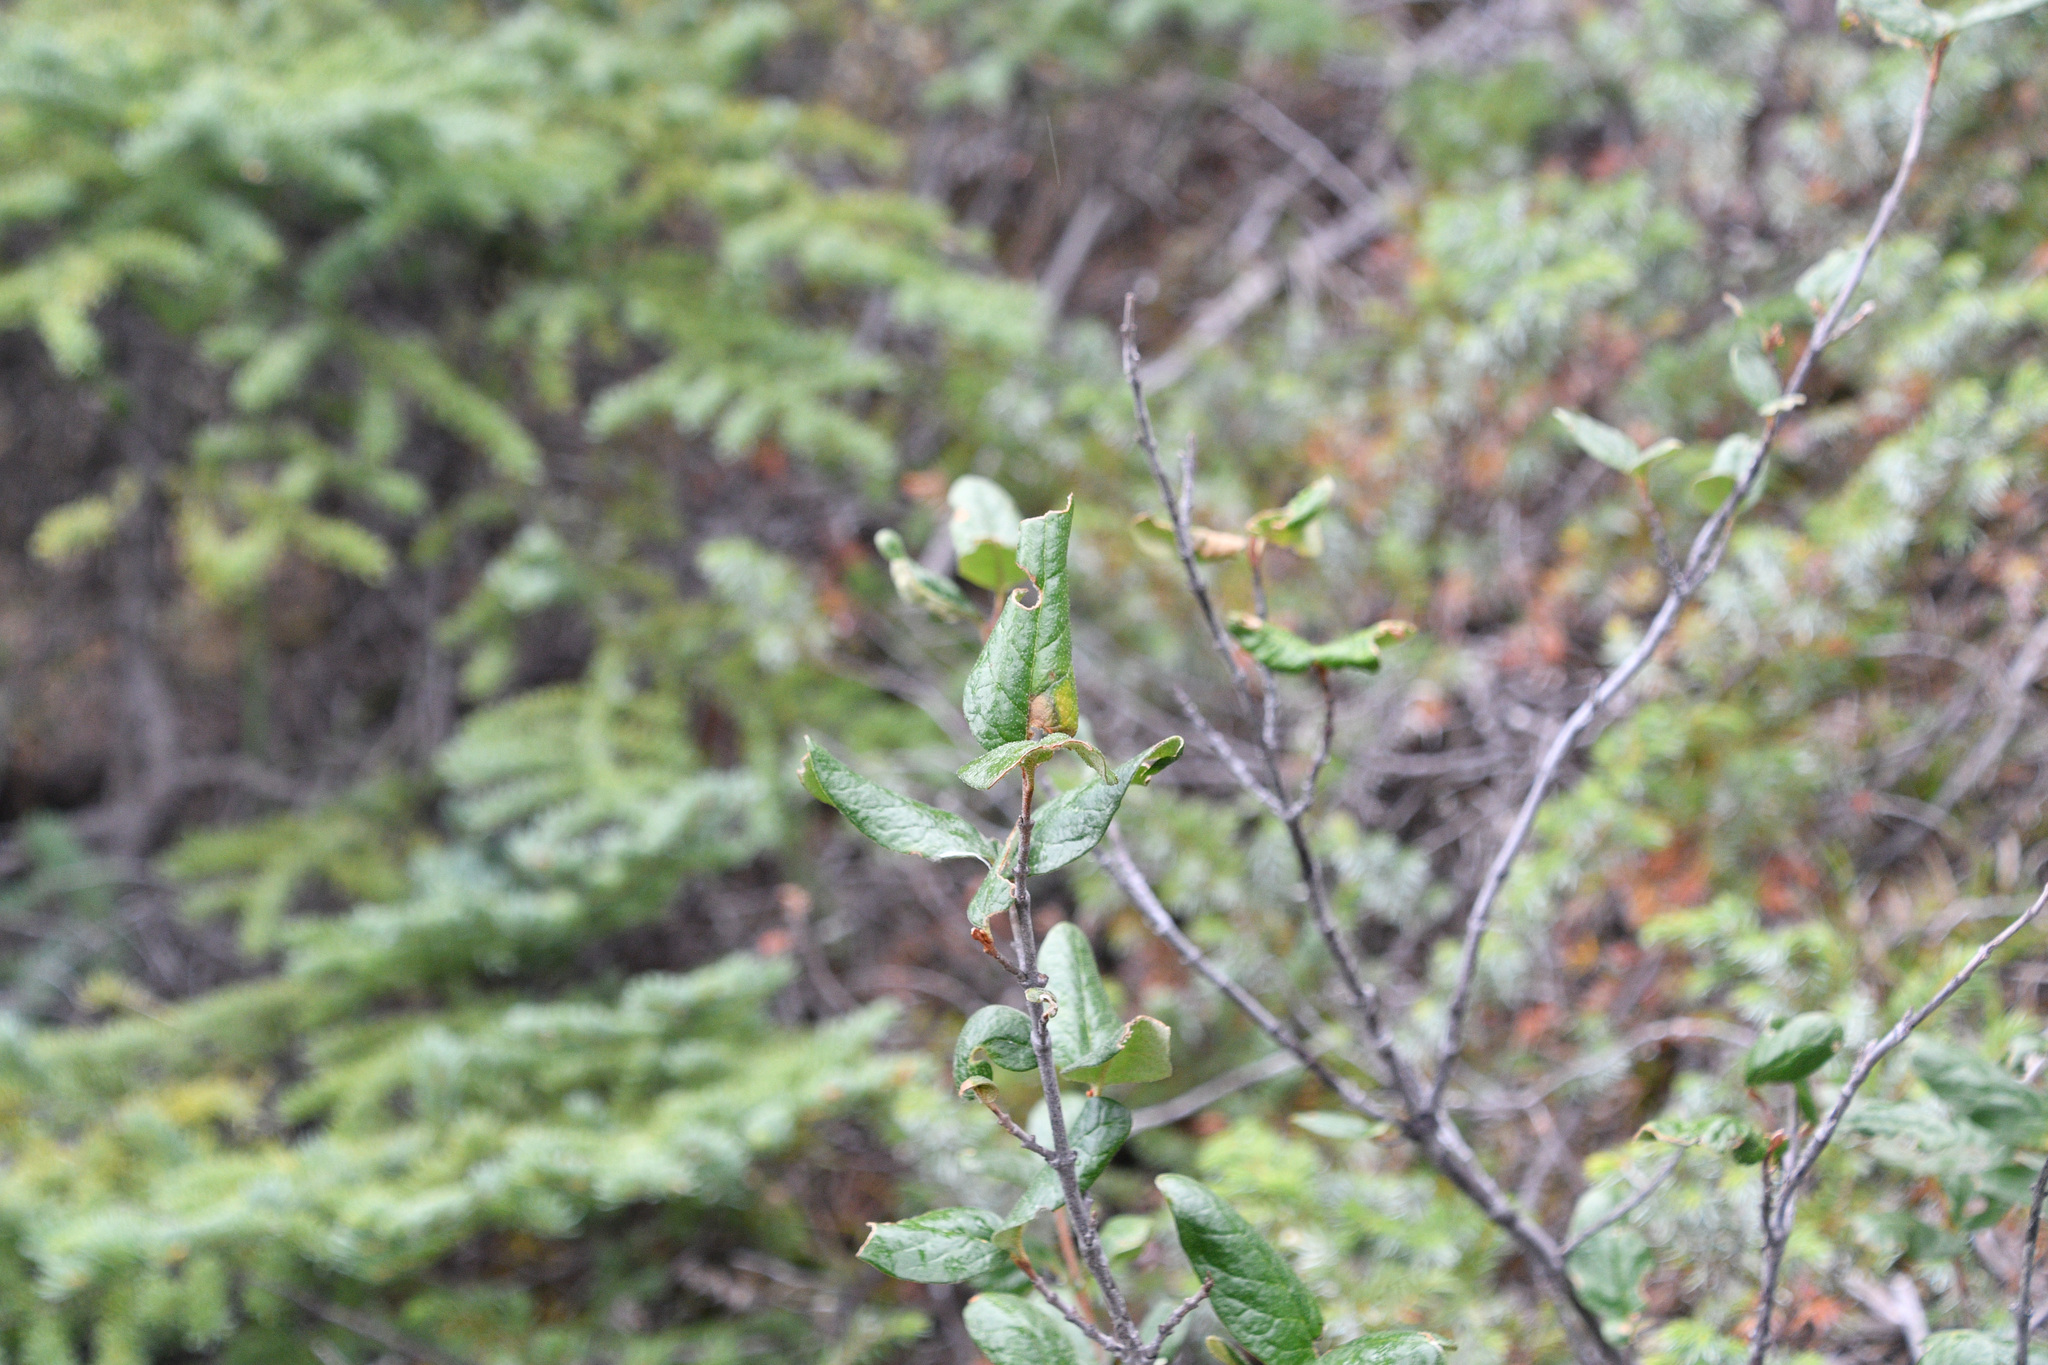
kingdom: Plantae
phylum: Tracheophyta
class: Magnoliopsida
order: Rosales
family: Elaeagnaceae
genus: Shepherdia
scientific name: Shepherdia canadensis
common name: Soapberry
